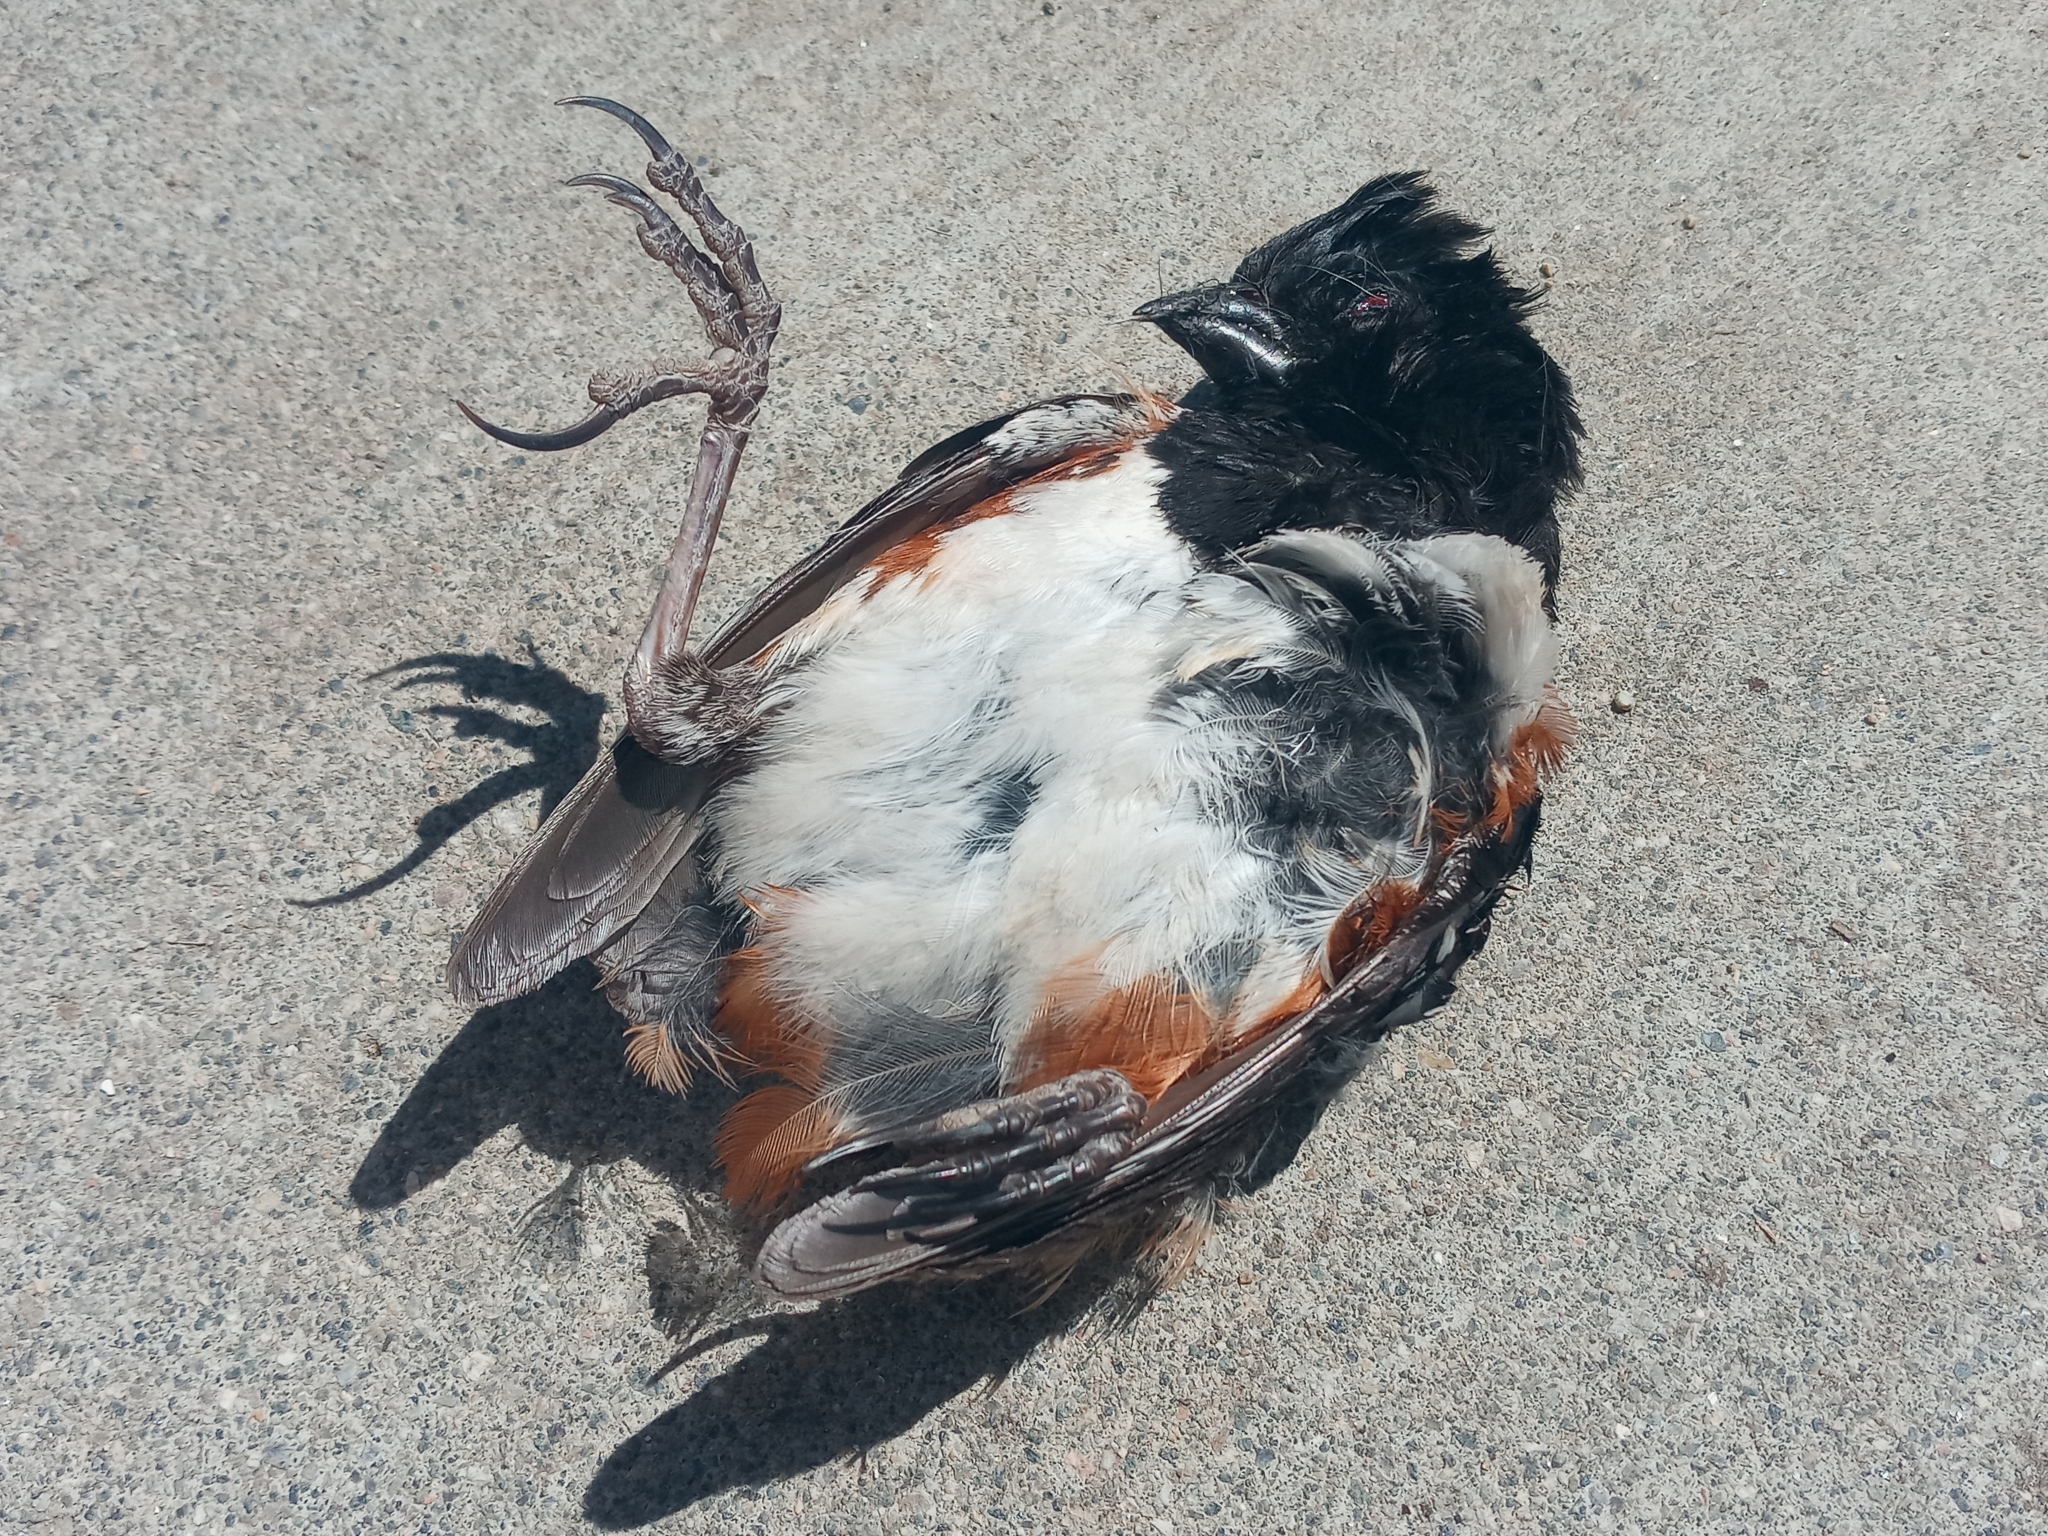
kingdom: Animalia
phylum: Chordata
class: Aves
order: Passeriformes
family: Passerellidae
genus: Pipilo
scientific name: Pipilo maculatus
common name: Spotted towhee
